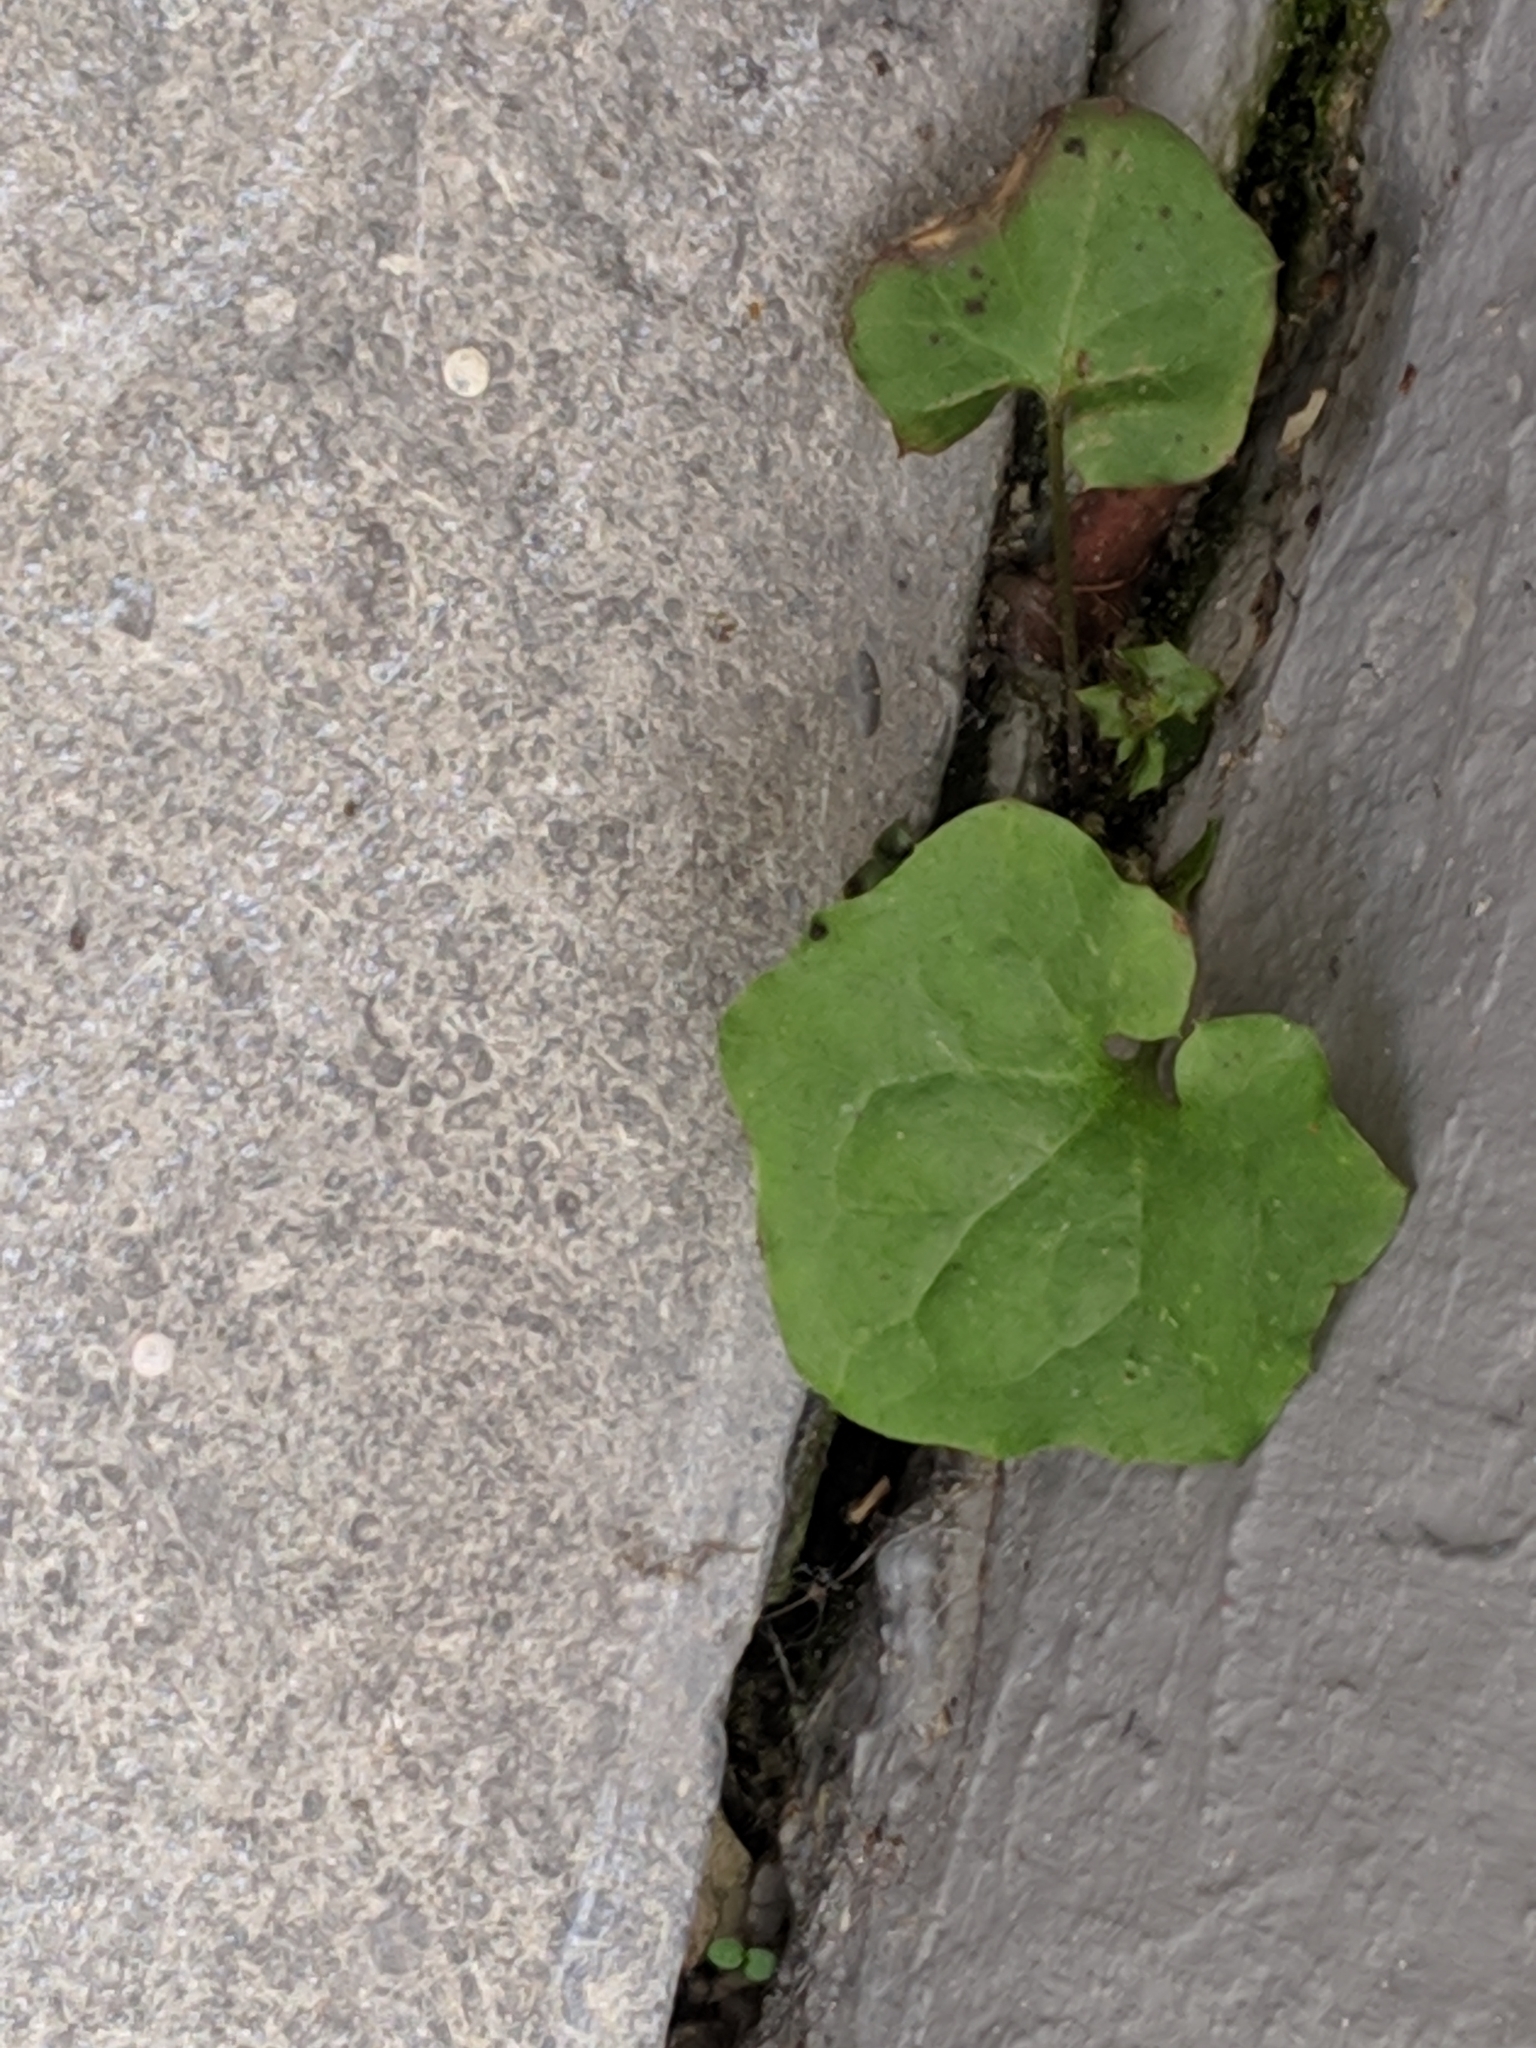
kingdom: Plantae
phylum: Tracheophyta
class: Magnoliopsida
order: Asterales
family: Asteraceae
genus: Mycelis
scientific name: Mycelis muralis
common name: Wall lettuce
